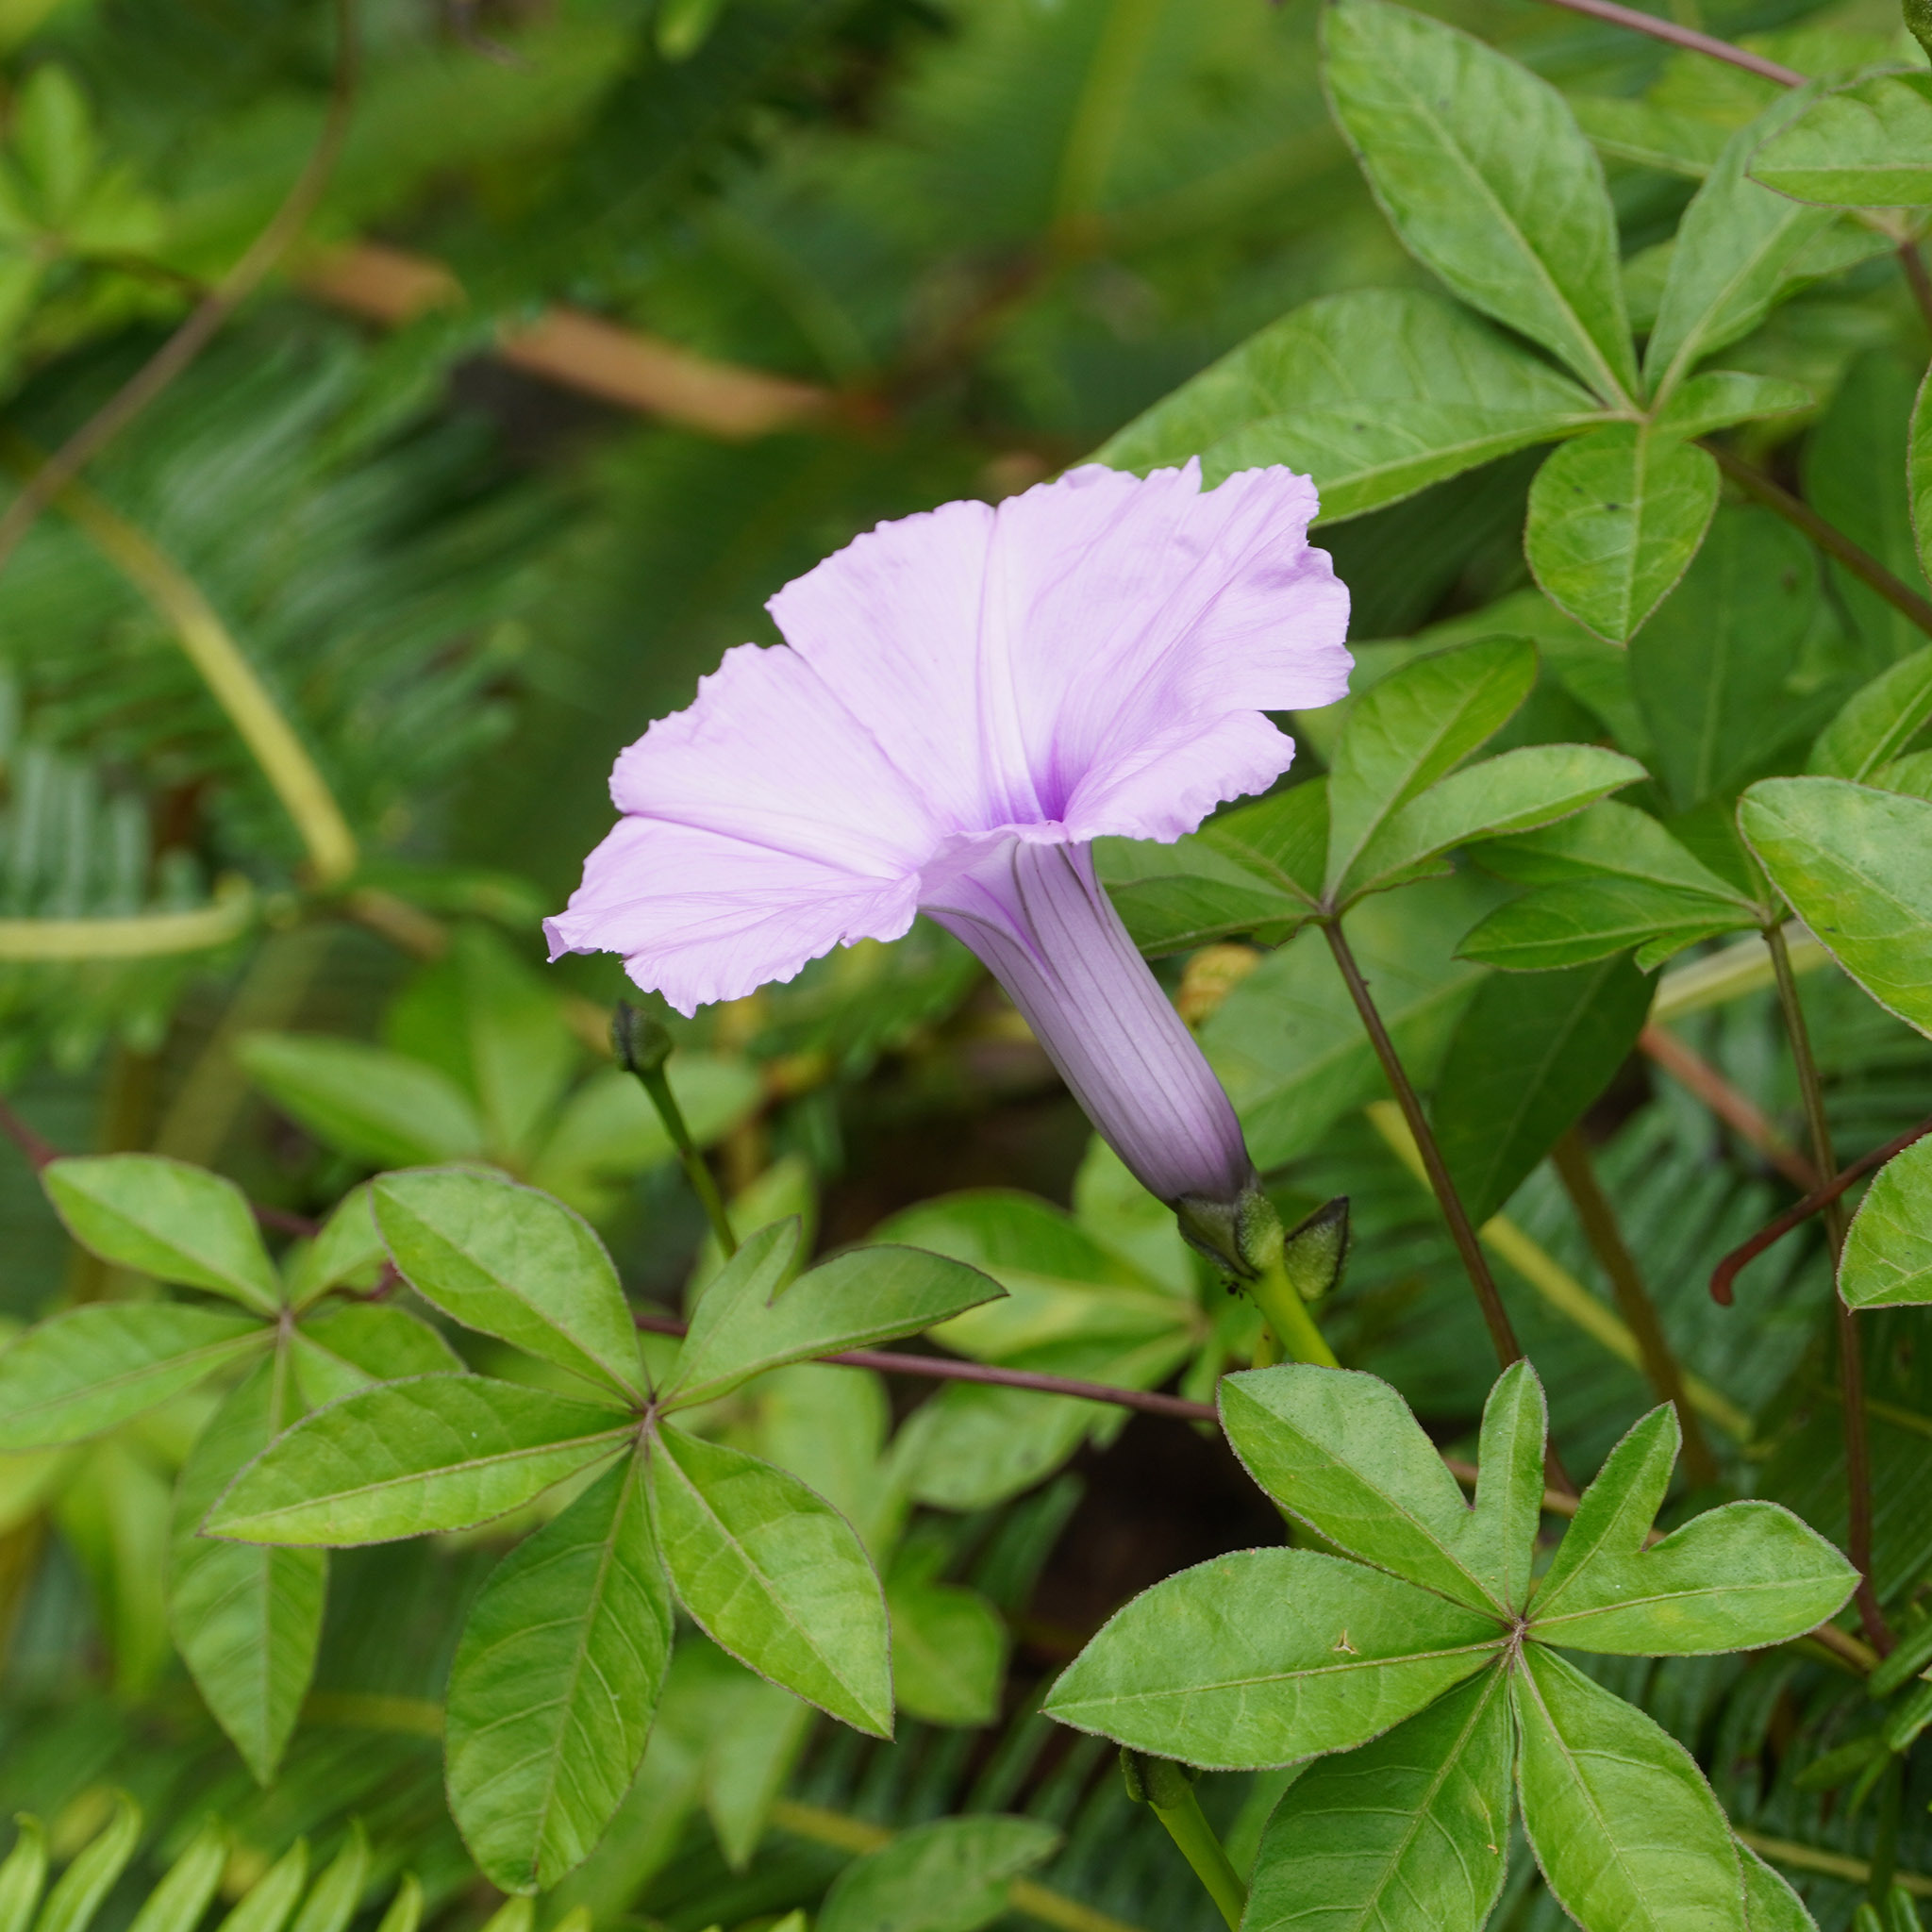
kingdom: Plantae
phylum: Tracheophyta
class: Magnoliopsida
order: Solanales
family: Convolvulaceae
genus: Ipomoea
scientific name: Ipomoea cairica
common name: Mile a minute vine
